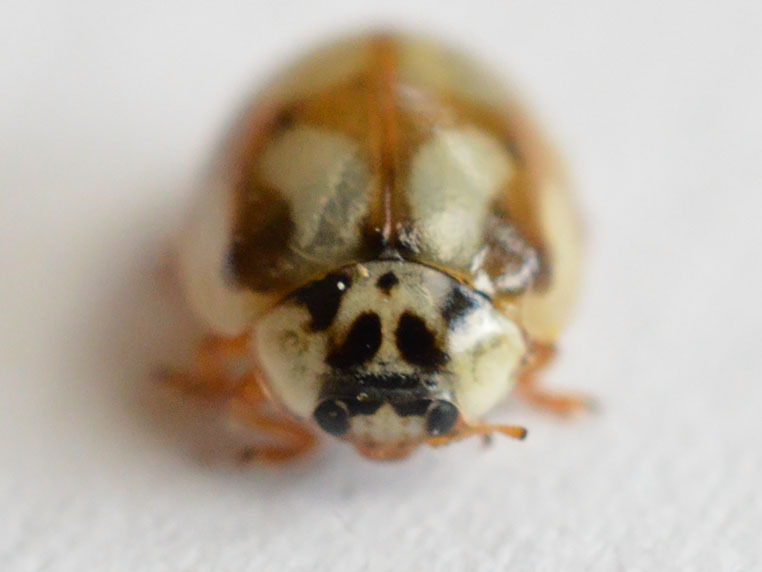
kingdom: Animalia
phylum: Arthropoda
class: Insecta
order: Coleoptera
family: Coccinellidae
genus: Adalia
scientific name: Adalia decempunctata
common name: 10-spot ladybird
